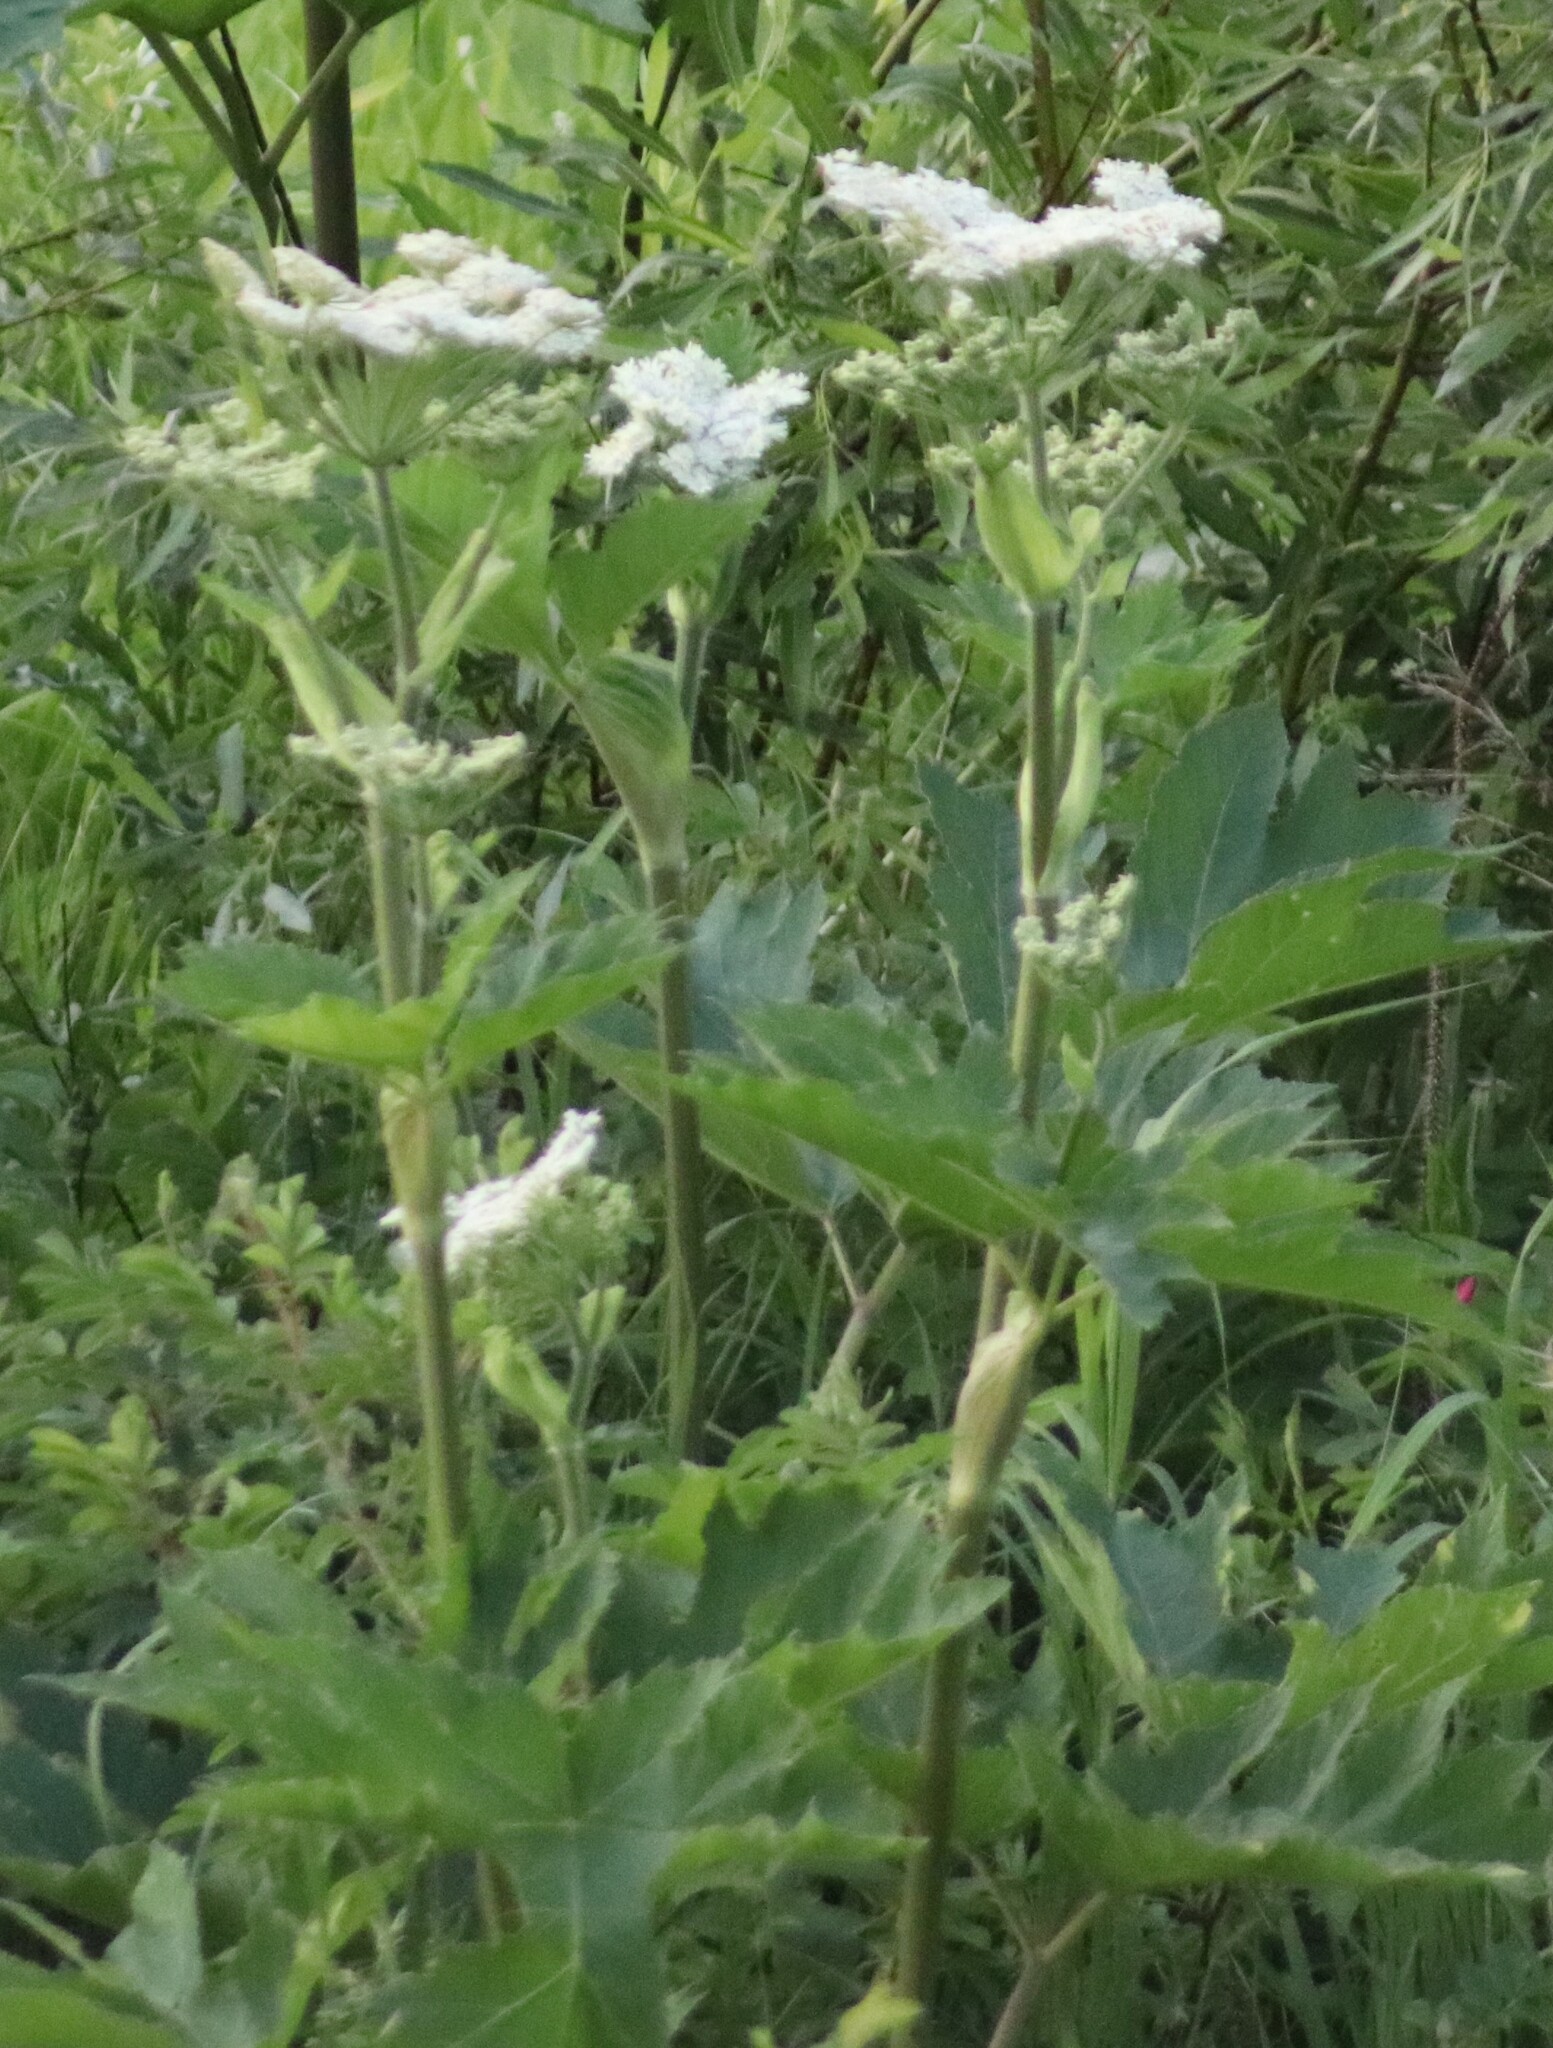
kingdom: Plantae
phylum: Tracheophyta
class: Magnoliopsida
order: Apiales
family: Apiaceae
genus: Heracleum
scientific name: Heracleum maximum
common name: American cow parsnip
